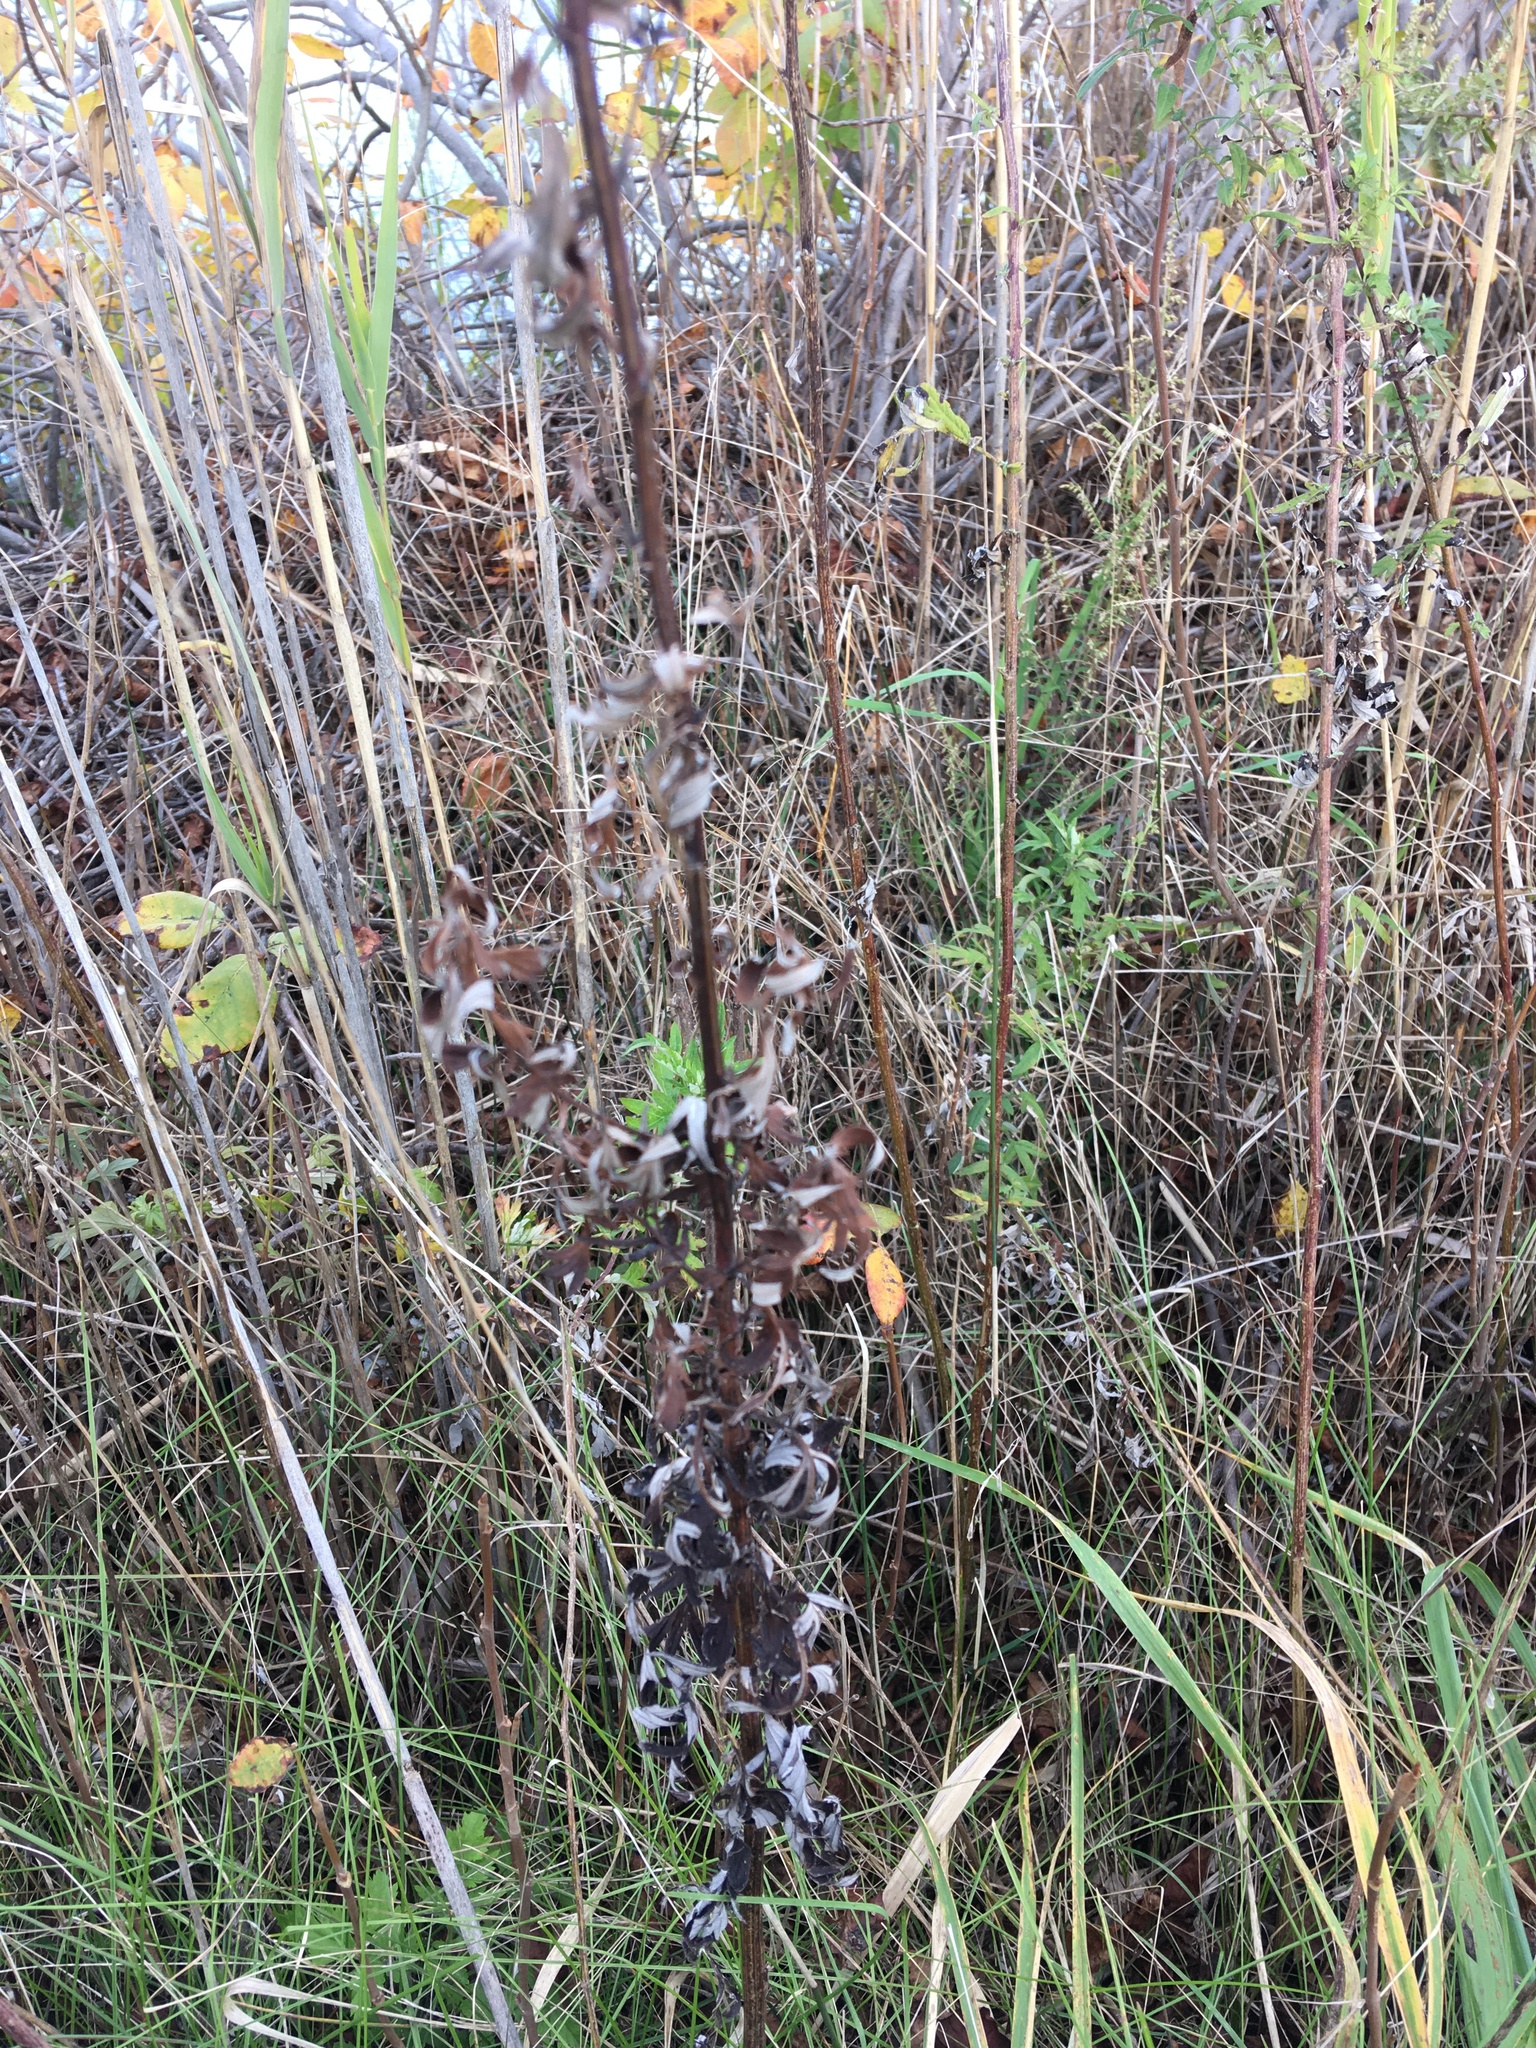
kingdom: Plantae
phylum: Tracheophyta
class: Magnoliopsida
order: Asterales
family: Asteraceae
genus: Artemisia
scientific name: Artemisia vulgaris
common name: Mugwort
